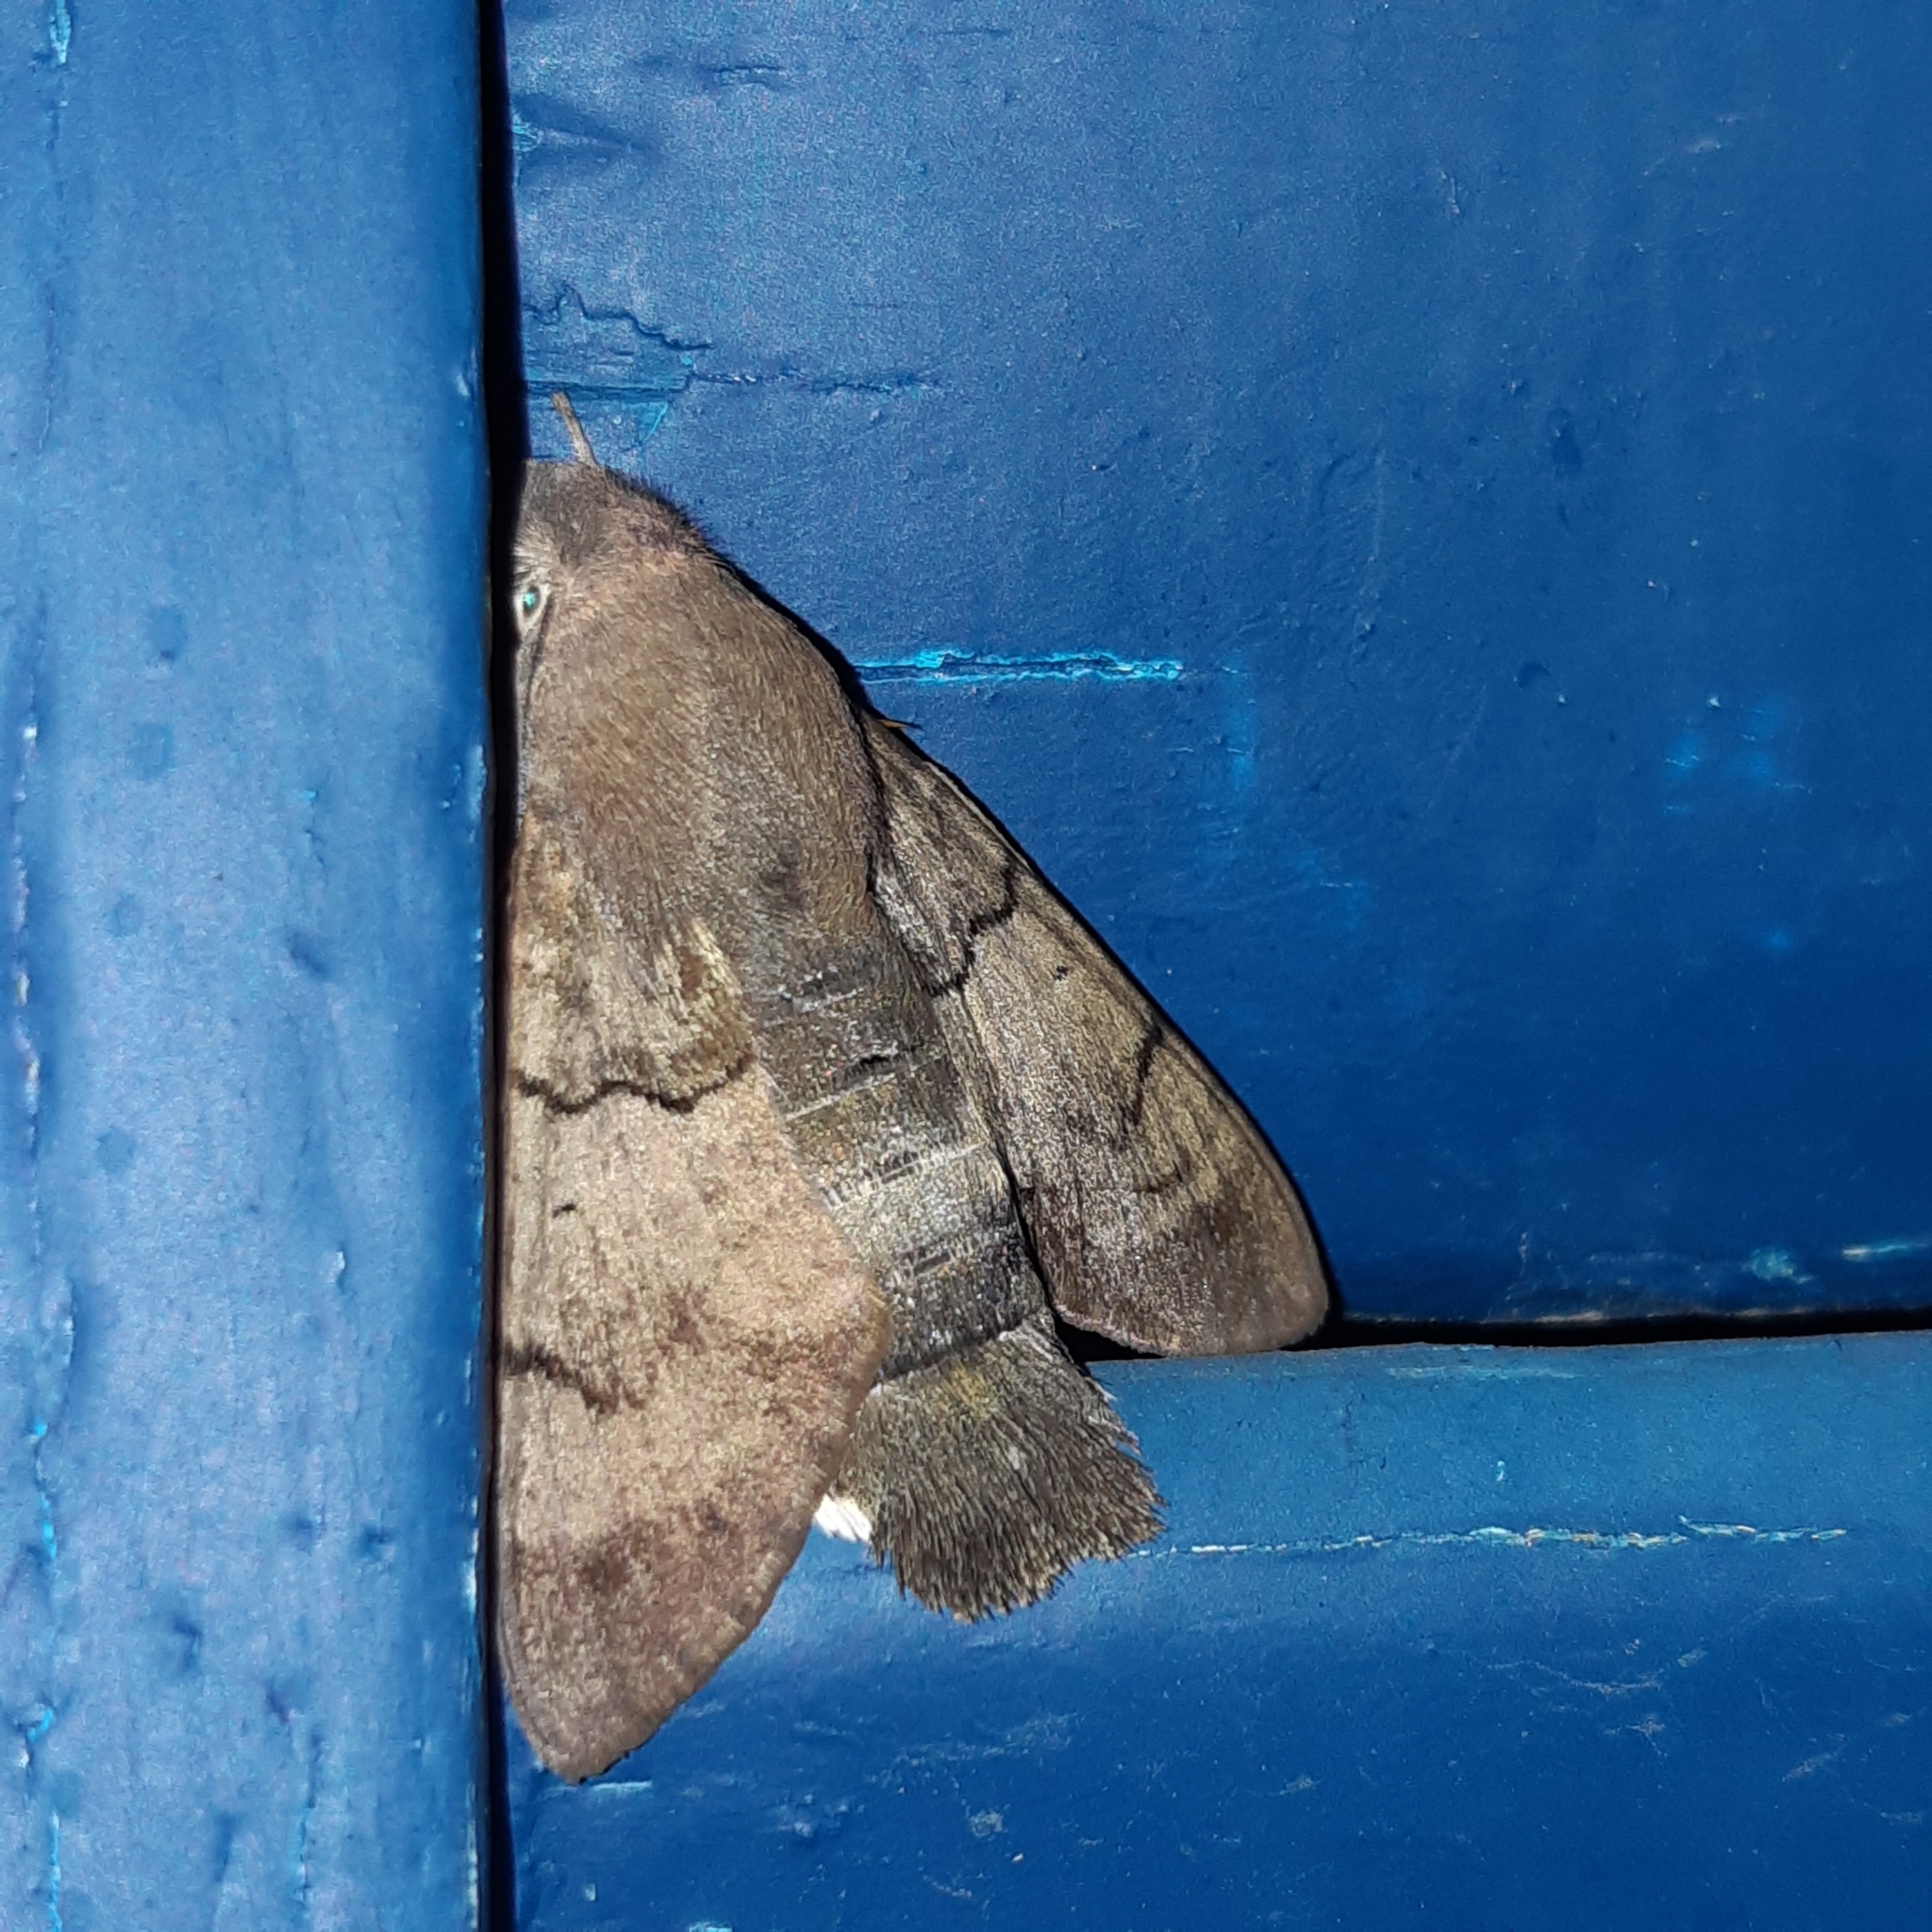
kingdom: Animalia
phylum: Arthropoda
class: Insecta
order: Lepidoptera
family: Sphingidae
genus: Macroglossum
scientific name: Macroglossum stellatarum
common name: Humming-bird hawk-moth
